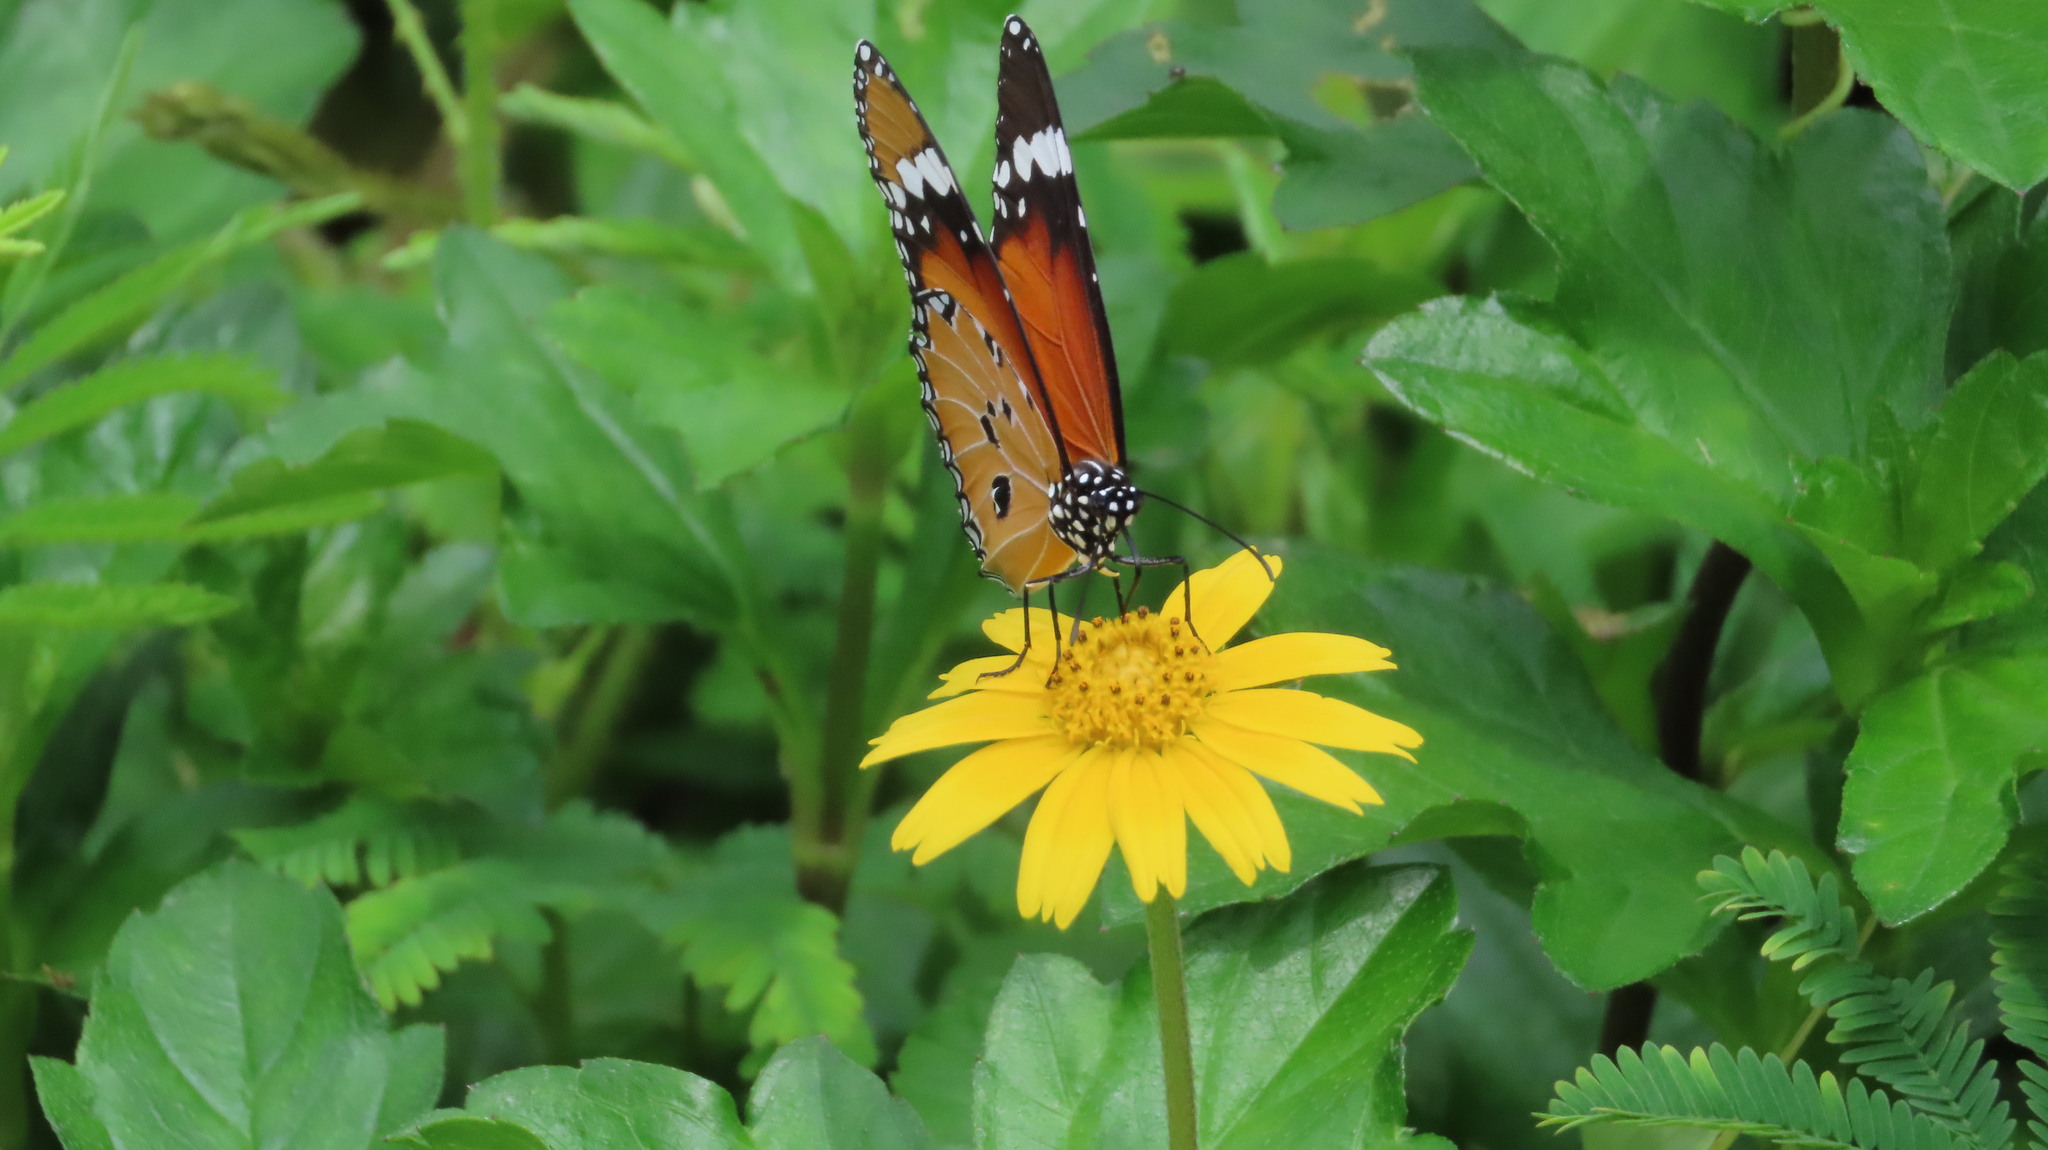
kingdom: Animalia
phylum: Arthropoda
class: Insecta
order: Lepidoptera
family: Nymphalidae
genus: Danaus
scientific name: Danaus chrysippus
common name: Plain tiger
